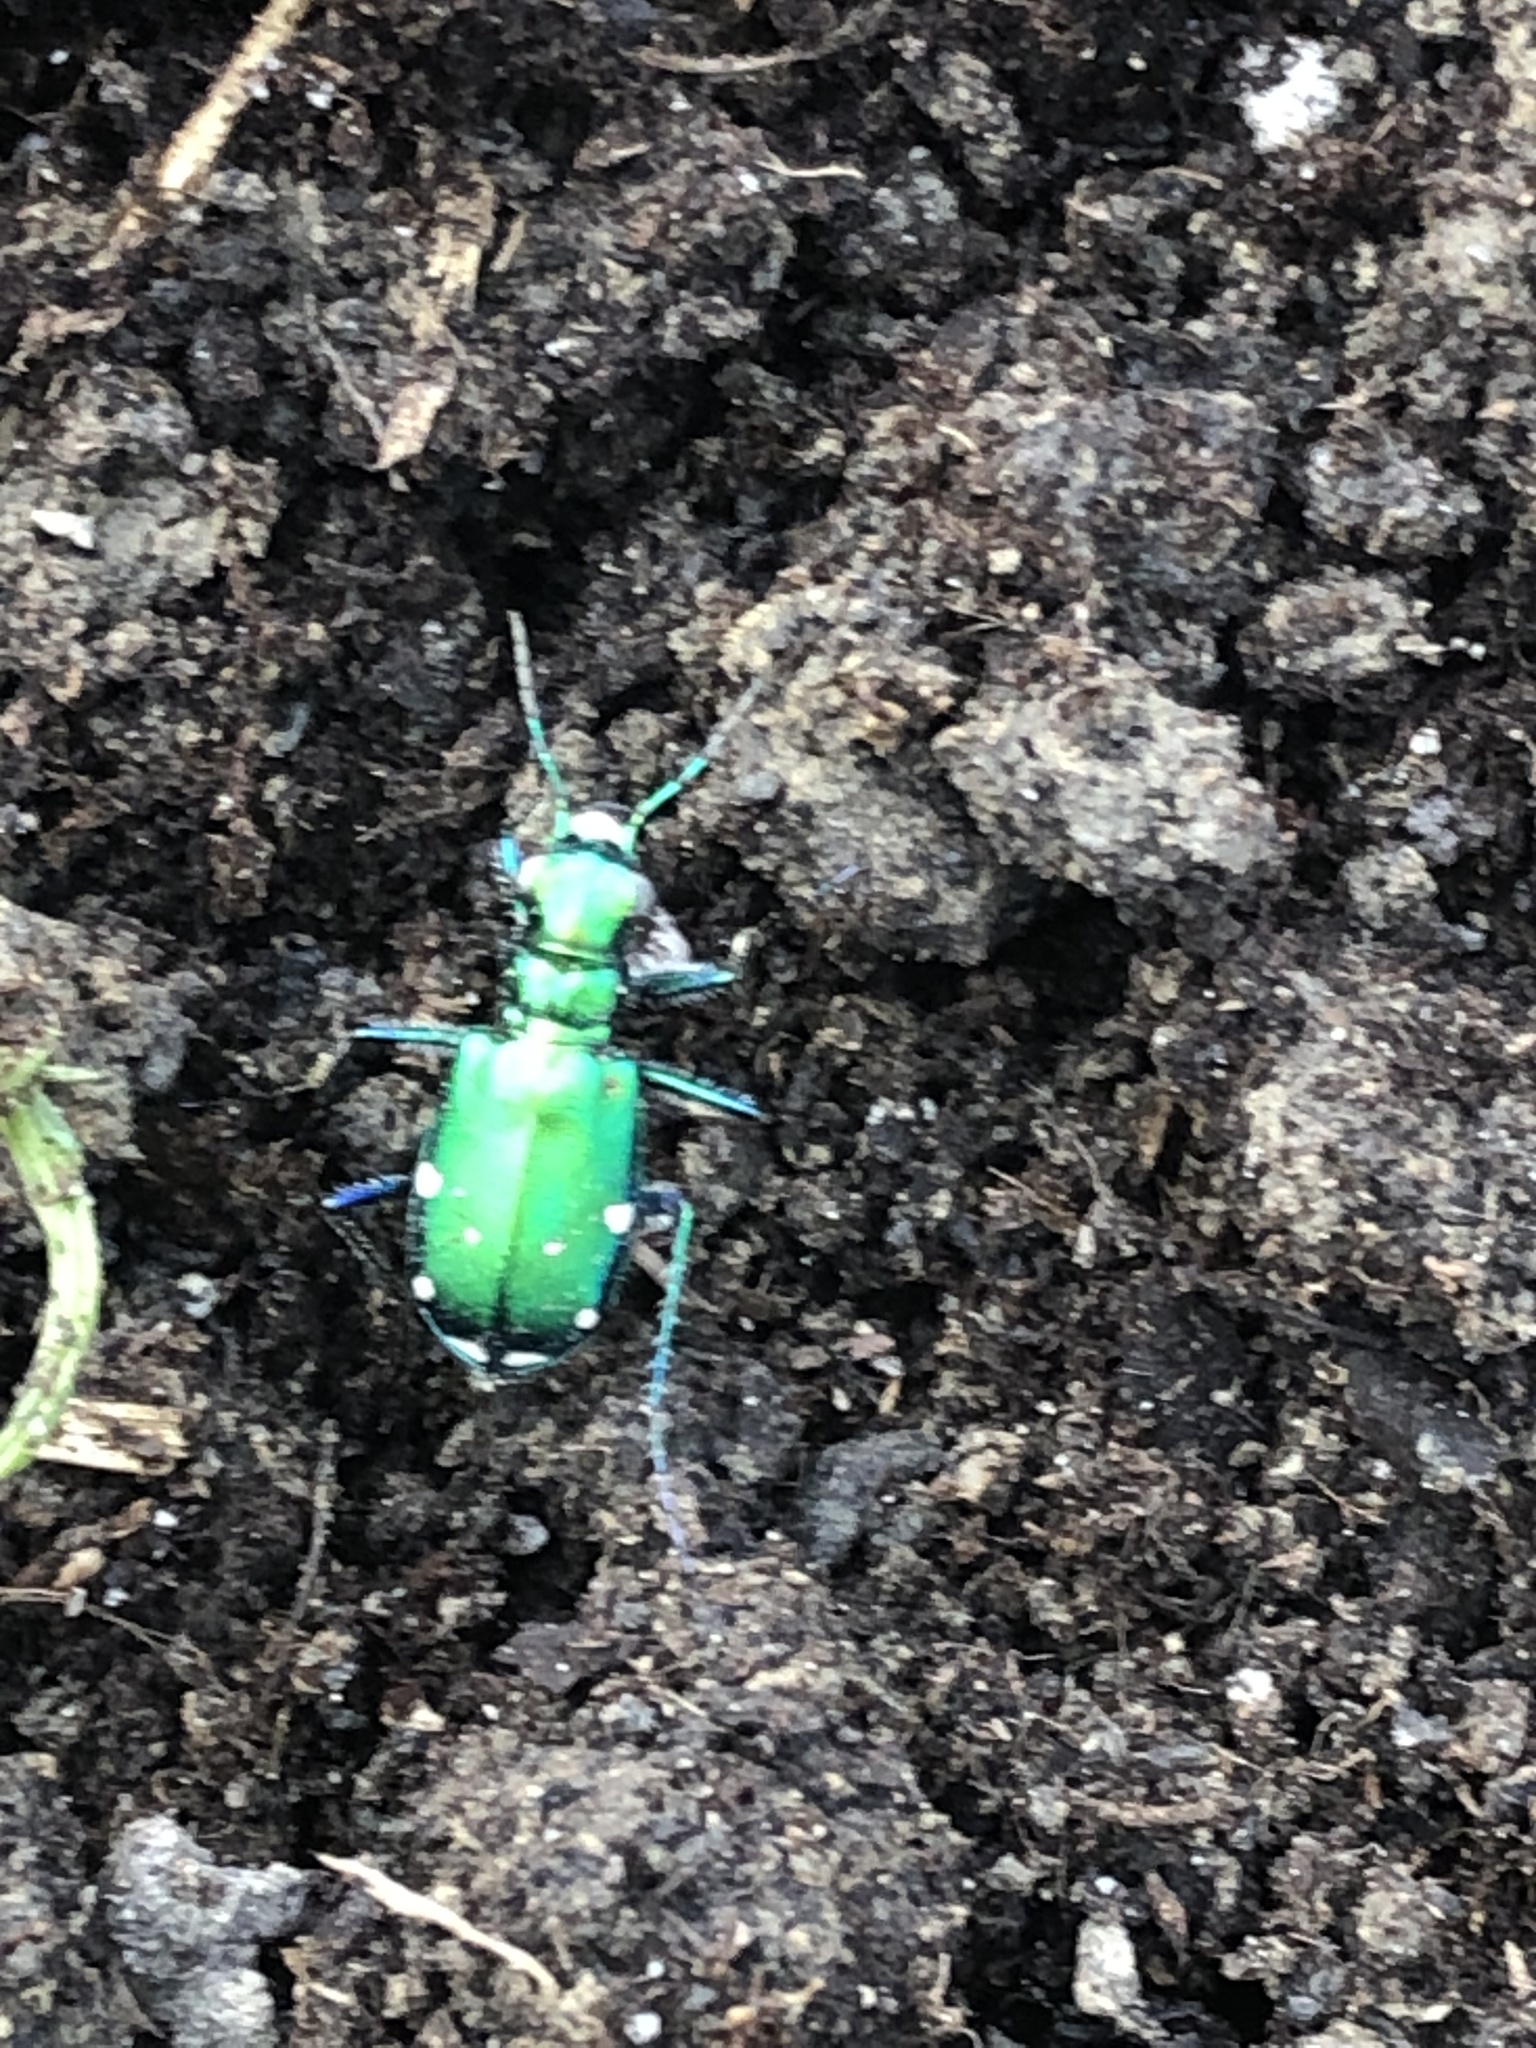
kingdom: Animalia
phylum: Arthropoda
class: Insecta
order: Coleoptera
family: Carabidae
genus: Cicindela
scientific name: Cicindela sexguttata
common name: Six-spotted tiger beetle
